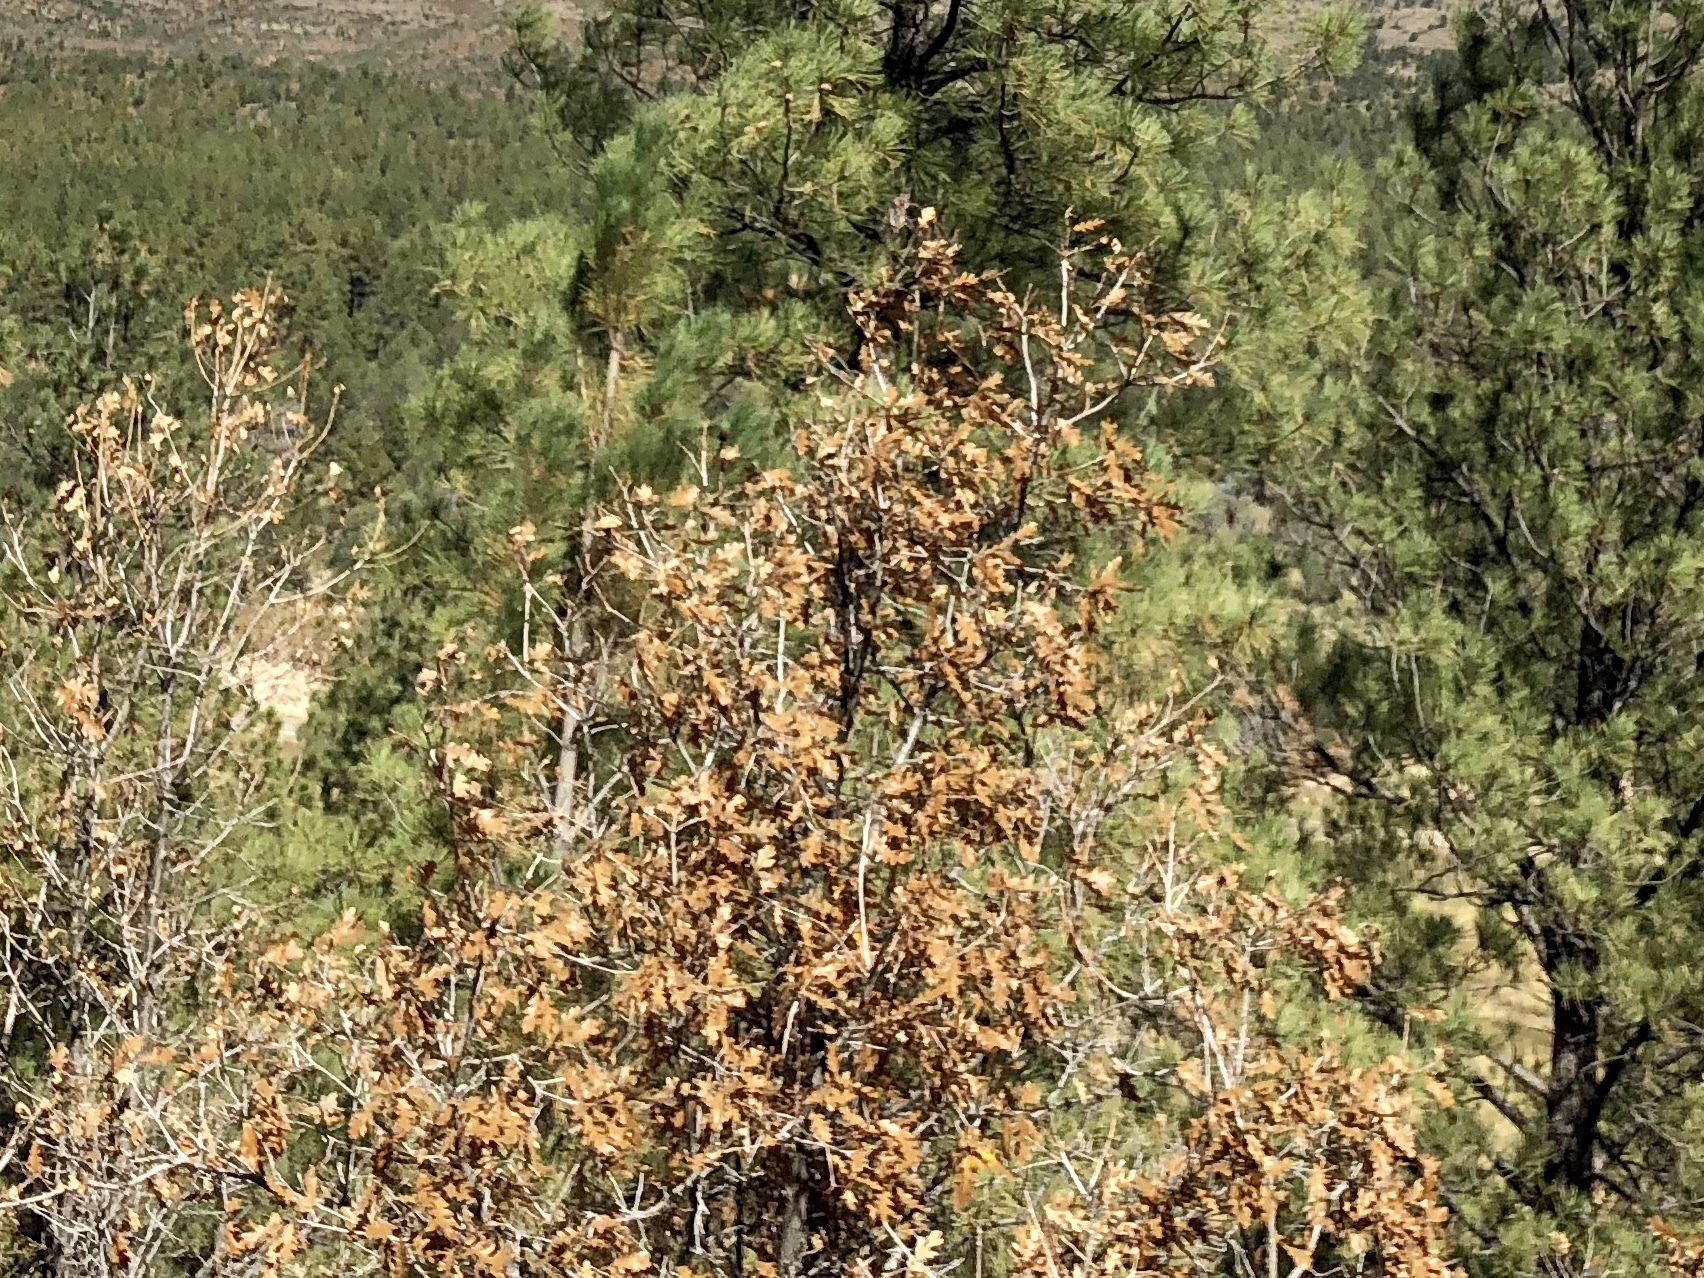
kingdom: Plantae
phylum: Tracheophyta
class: Magnoliopsida
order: Fagales
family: Fagaceae
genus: Quercus
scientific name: Quercus gambelii
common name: Gambel oak
